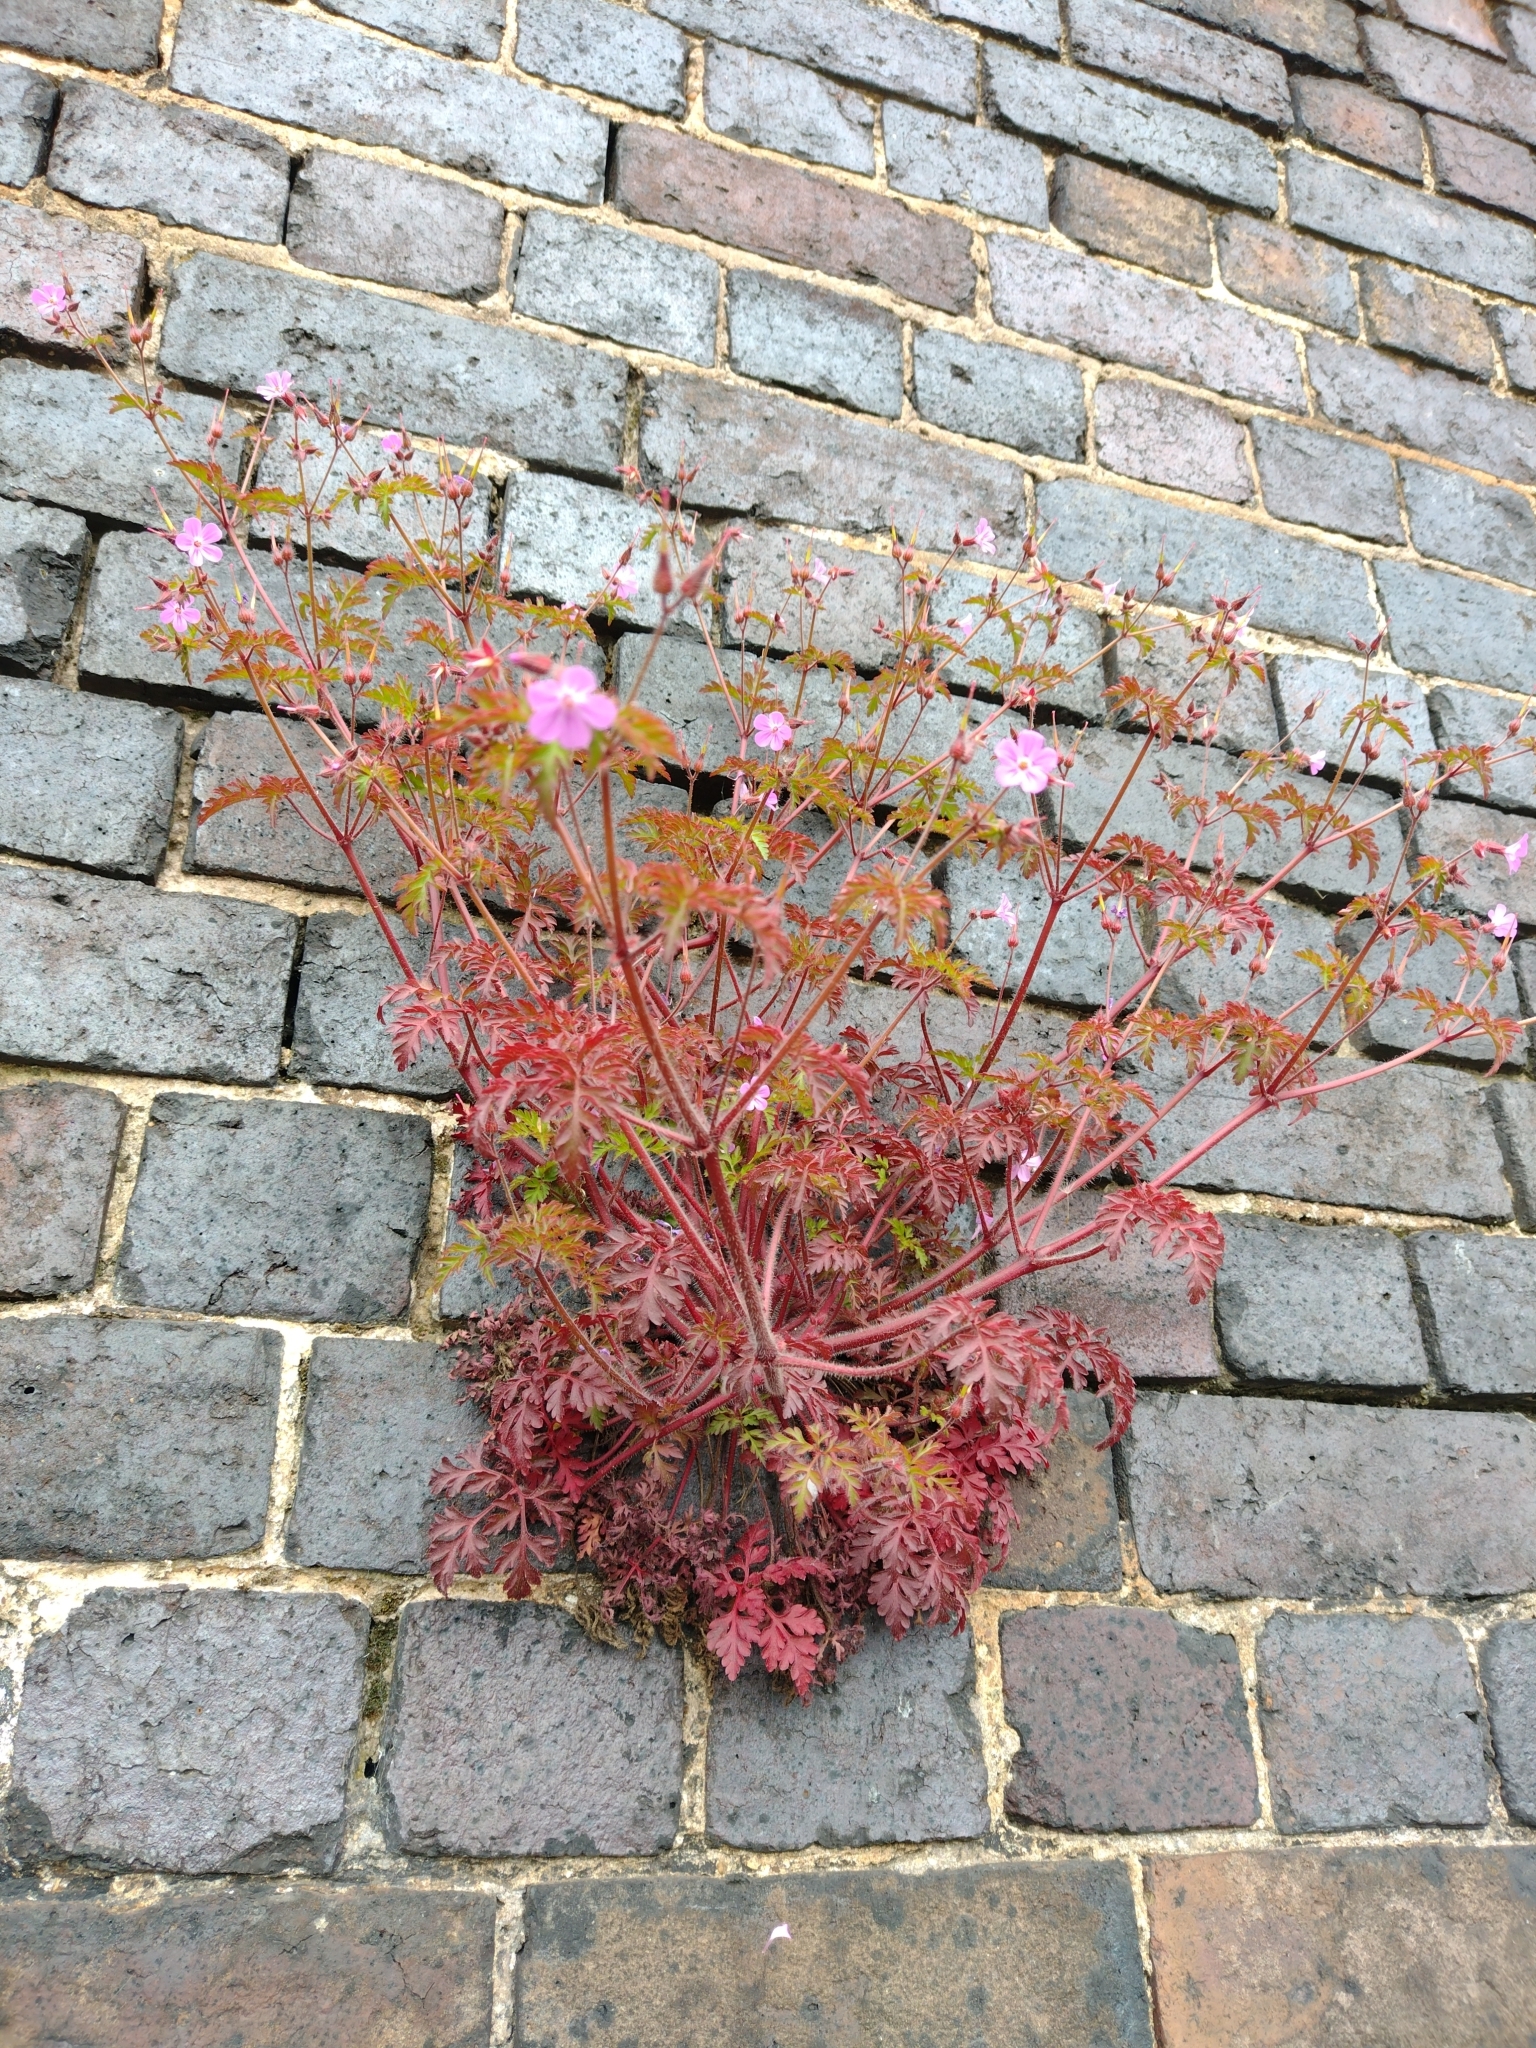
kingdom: Plantae
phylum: Tracheophyta
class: Magnoliopsida
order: Geraniales
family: Geraniaceae
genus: Geranium
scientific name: Geranium robertianum
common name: Herb-robert
